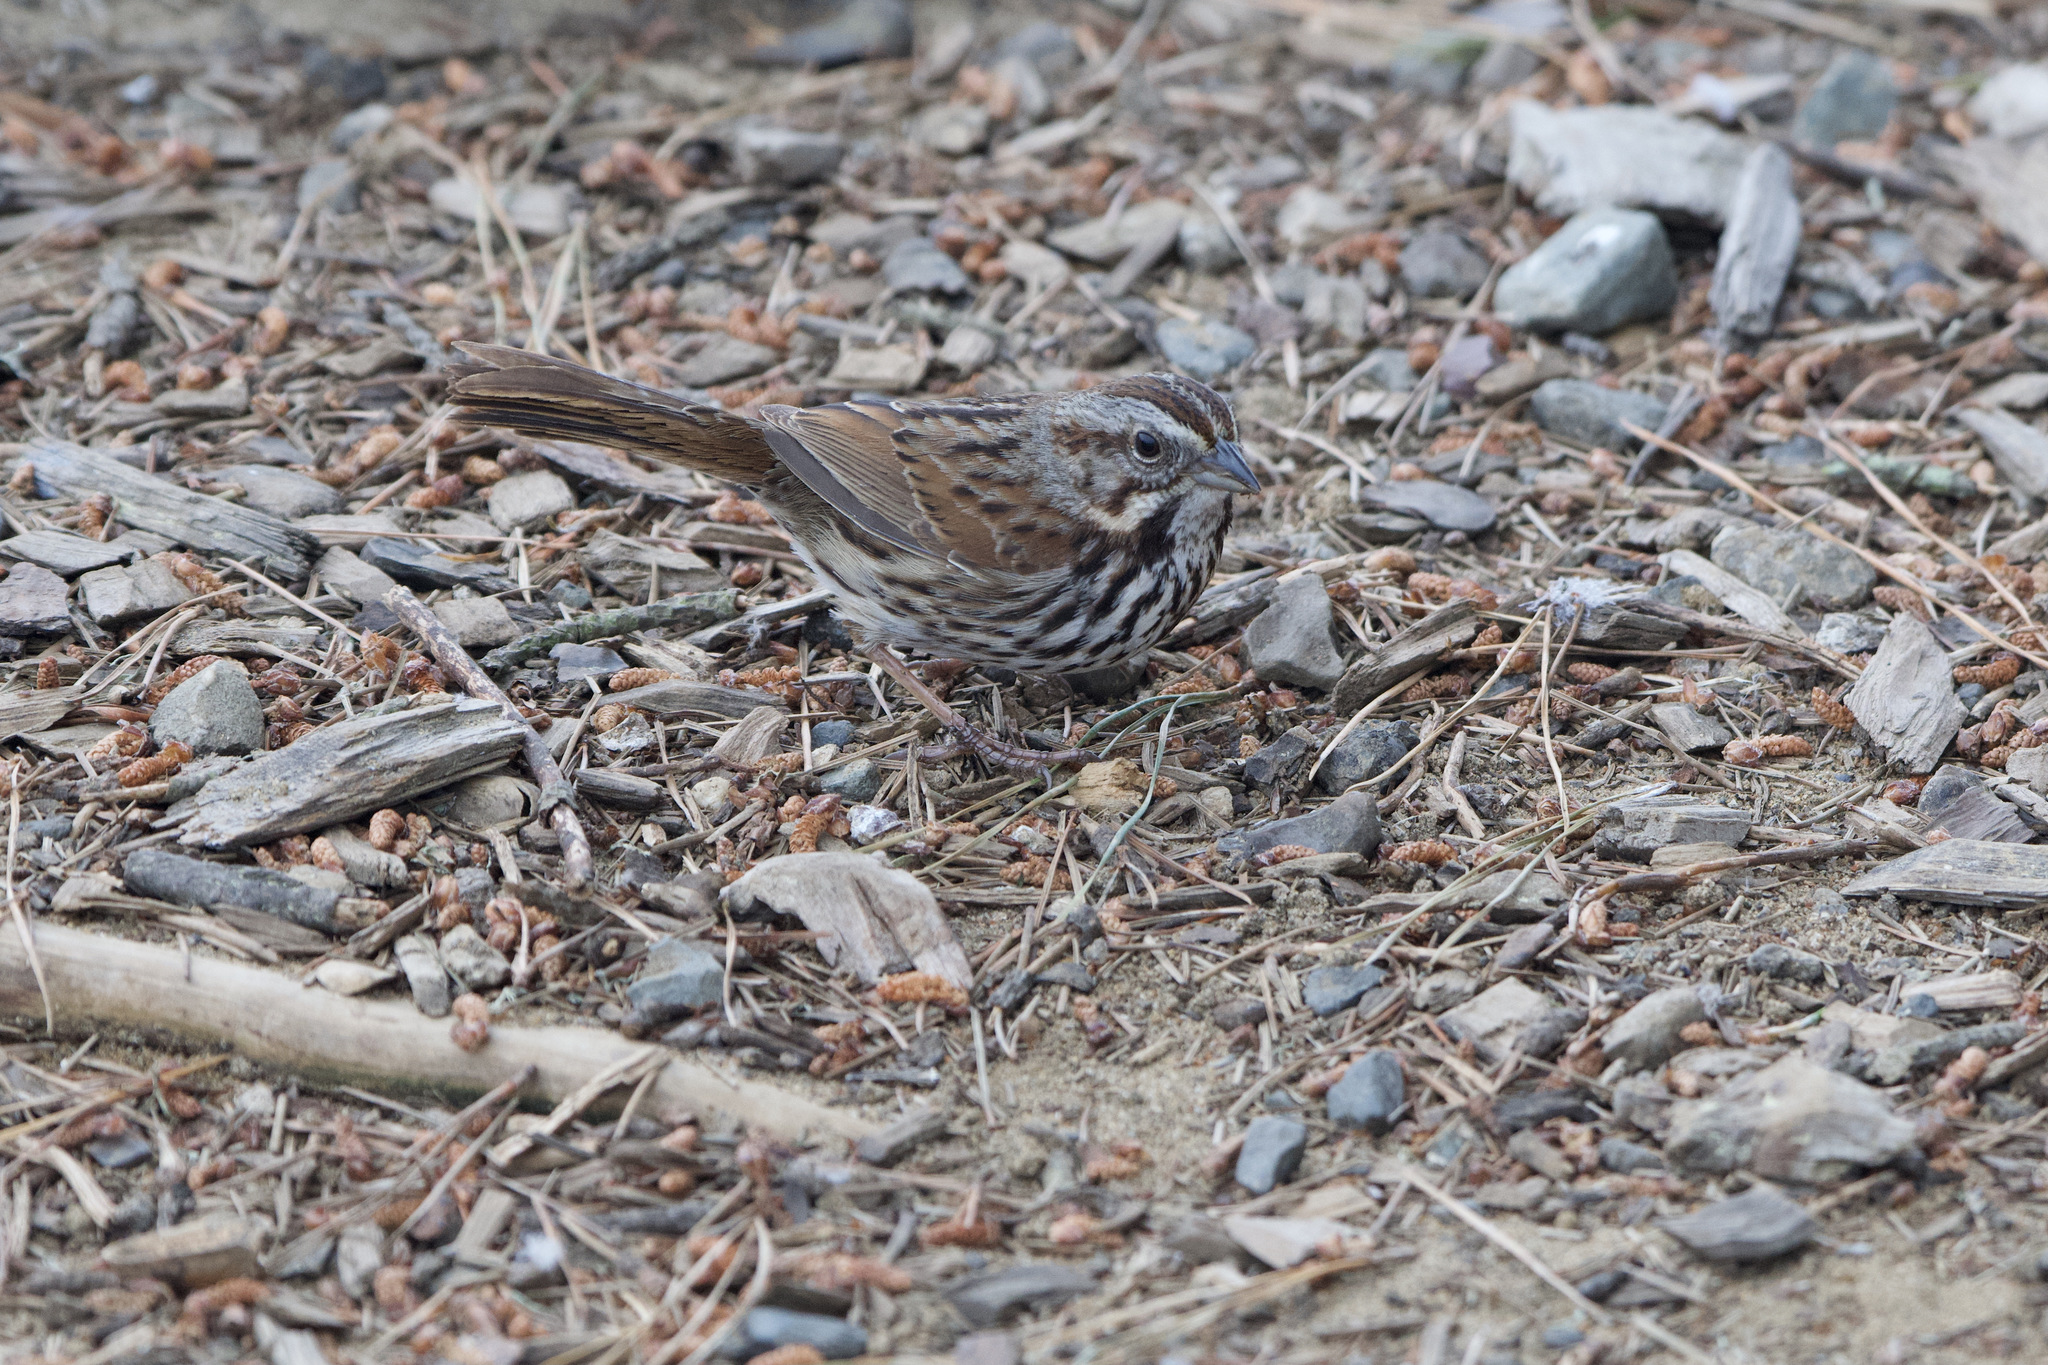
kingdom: Animalia
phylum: Chordata
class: Aves
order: Passeriformes
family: Passerellidae
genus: Melospiza
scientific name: Melospiza melodia
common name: Song sparrow
